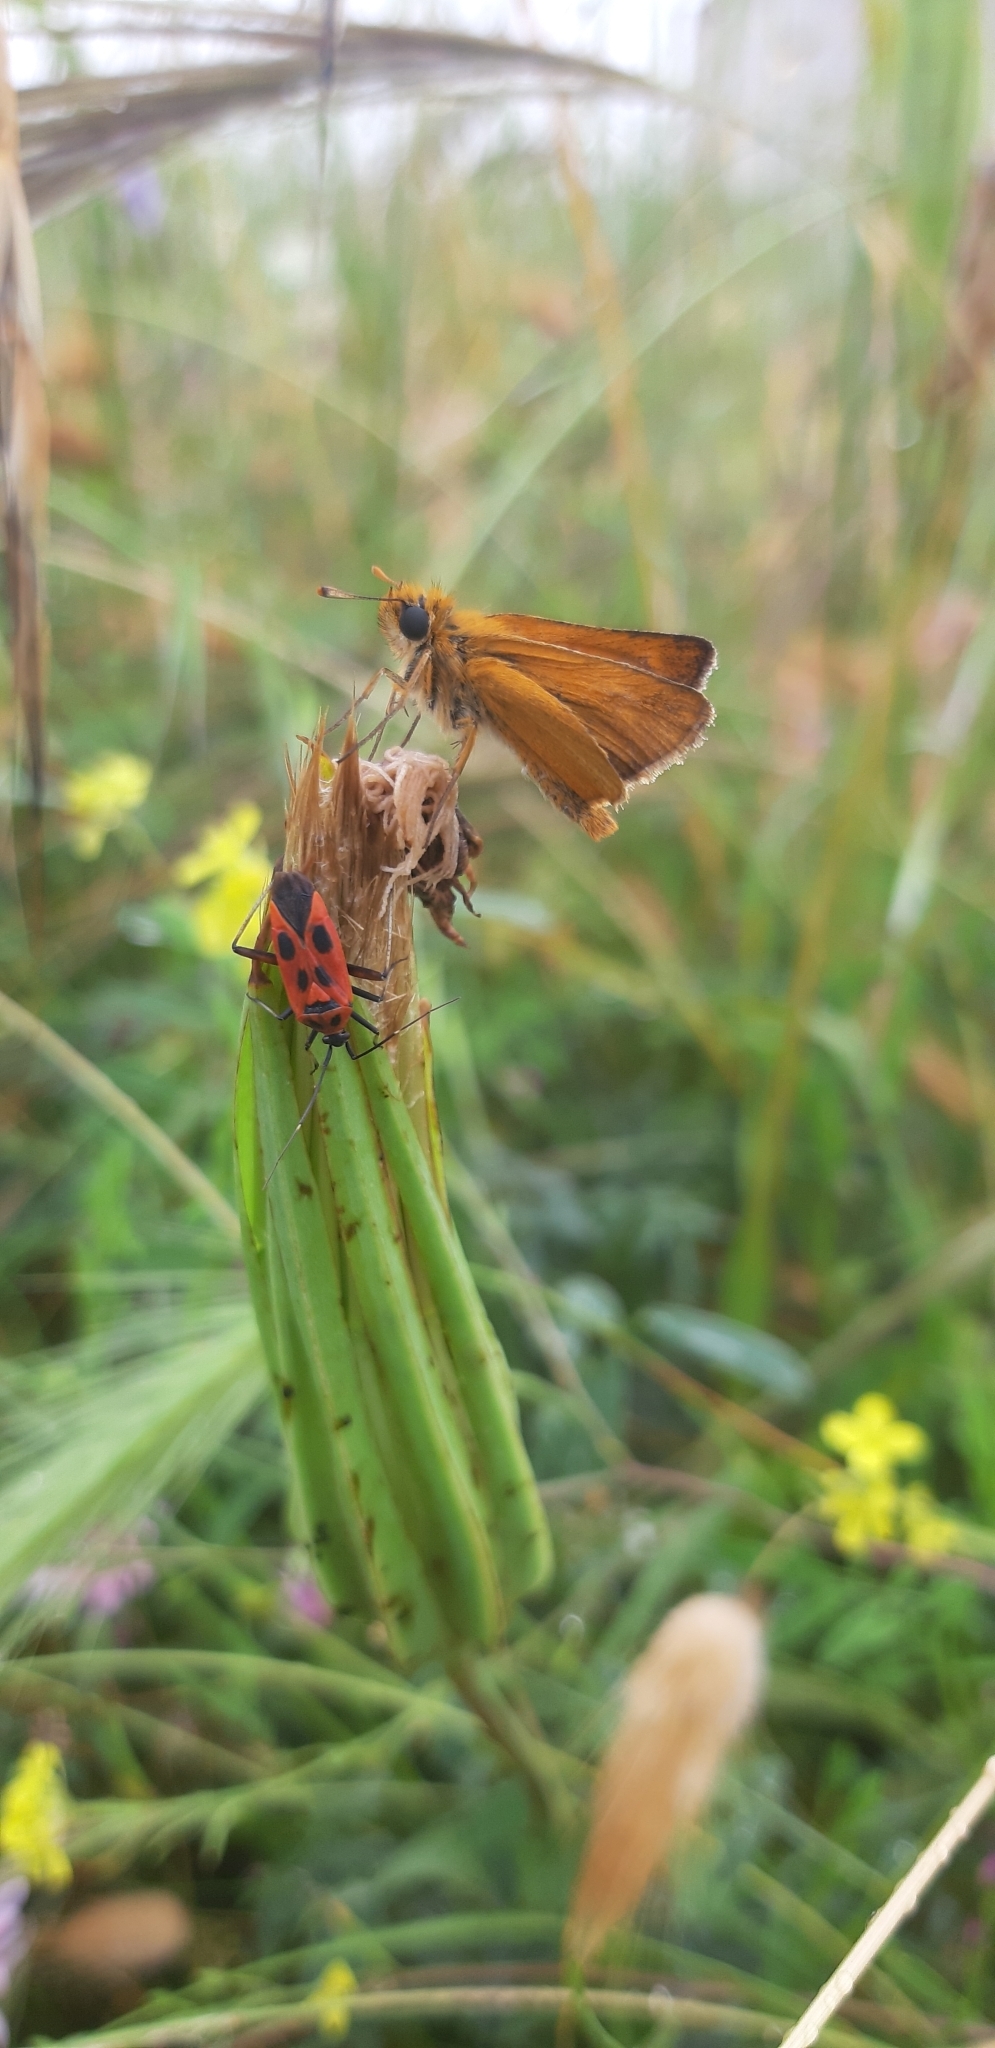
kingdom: Animalia
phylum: Arthropoda
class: Insecta
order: Lepidoptera
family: Hesperiidae
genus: Thymelicus
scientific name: Thymelicus acteon
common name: Lulworth skipper
